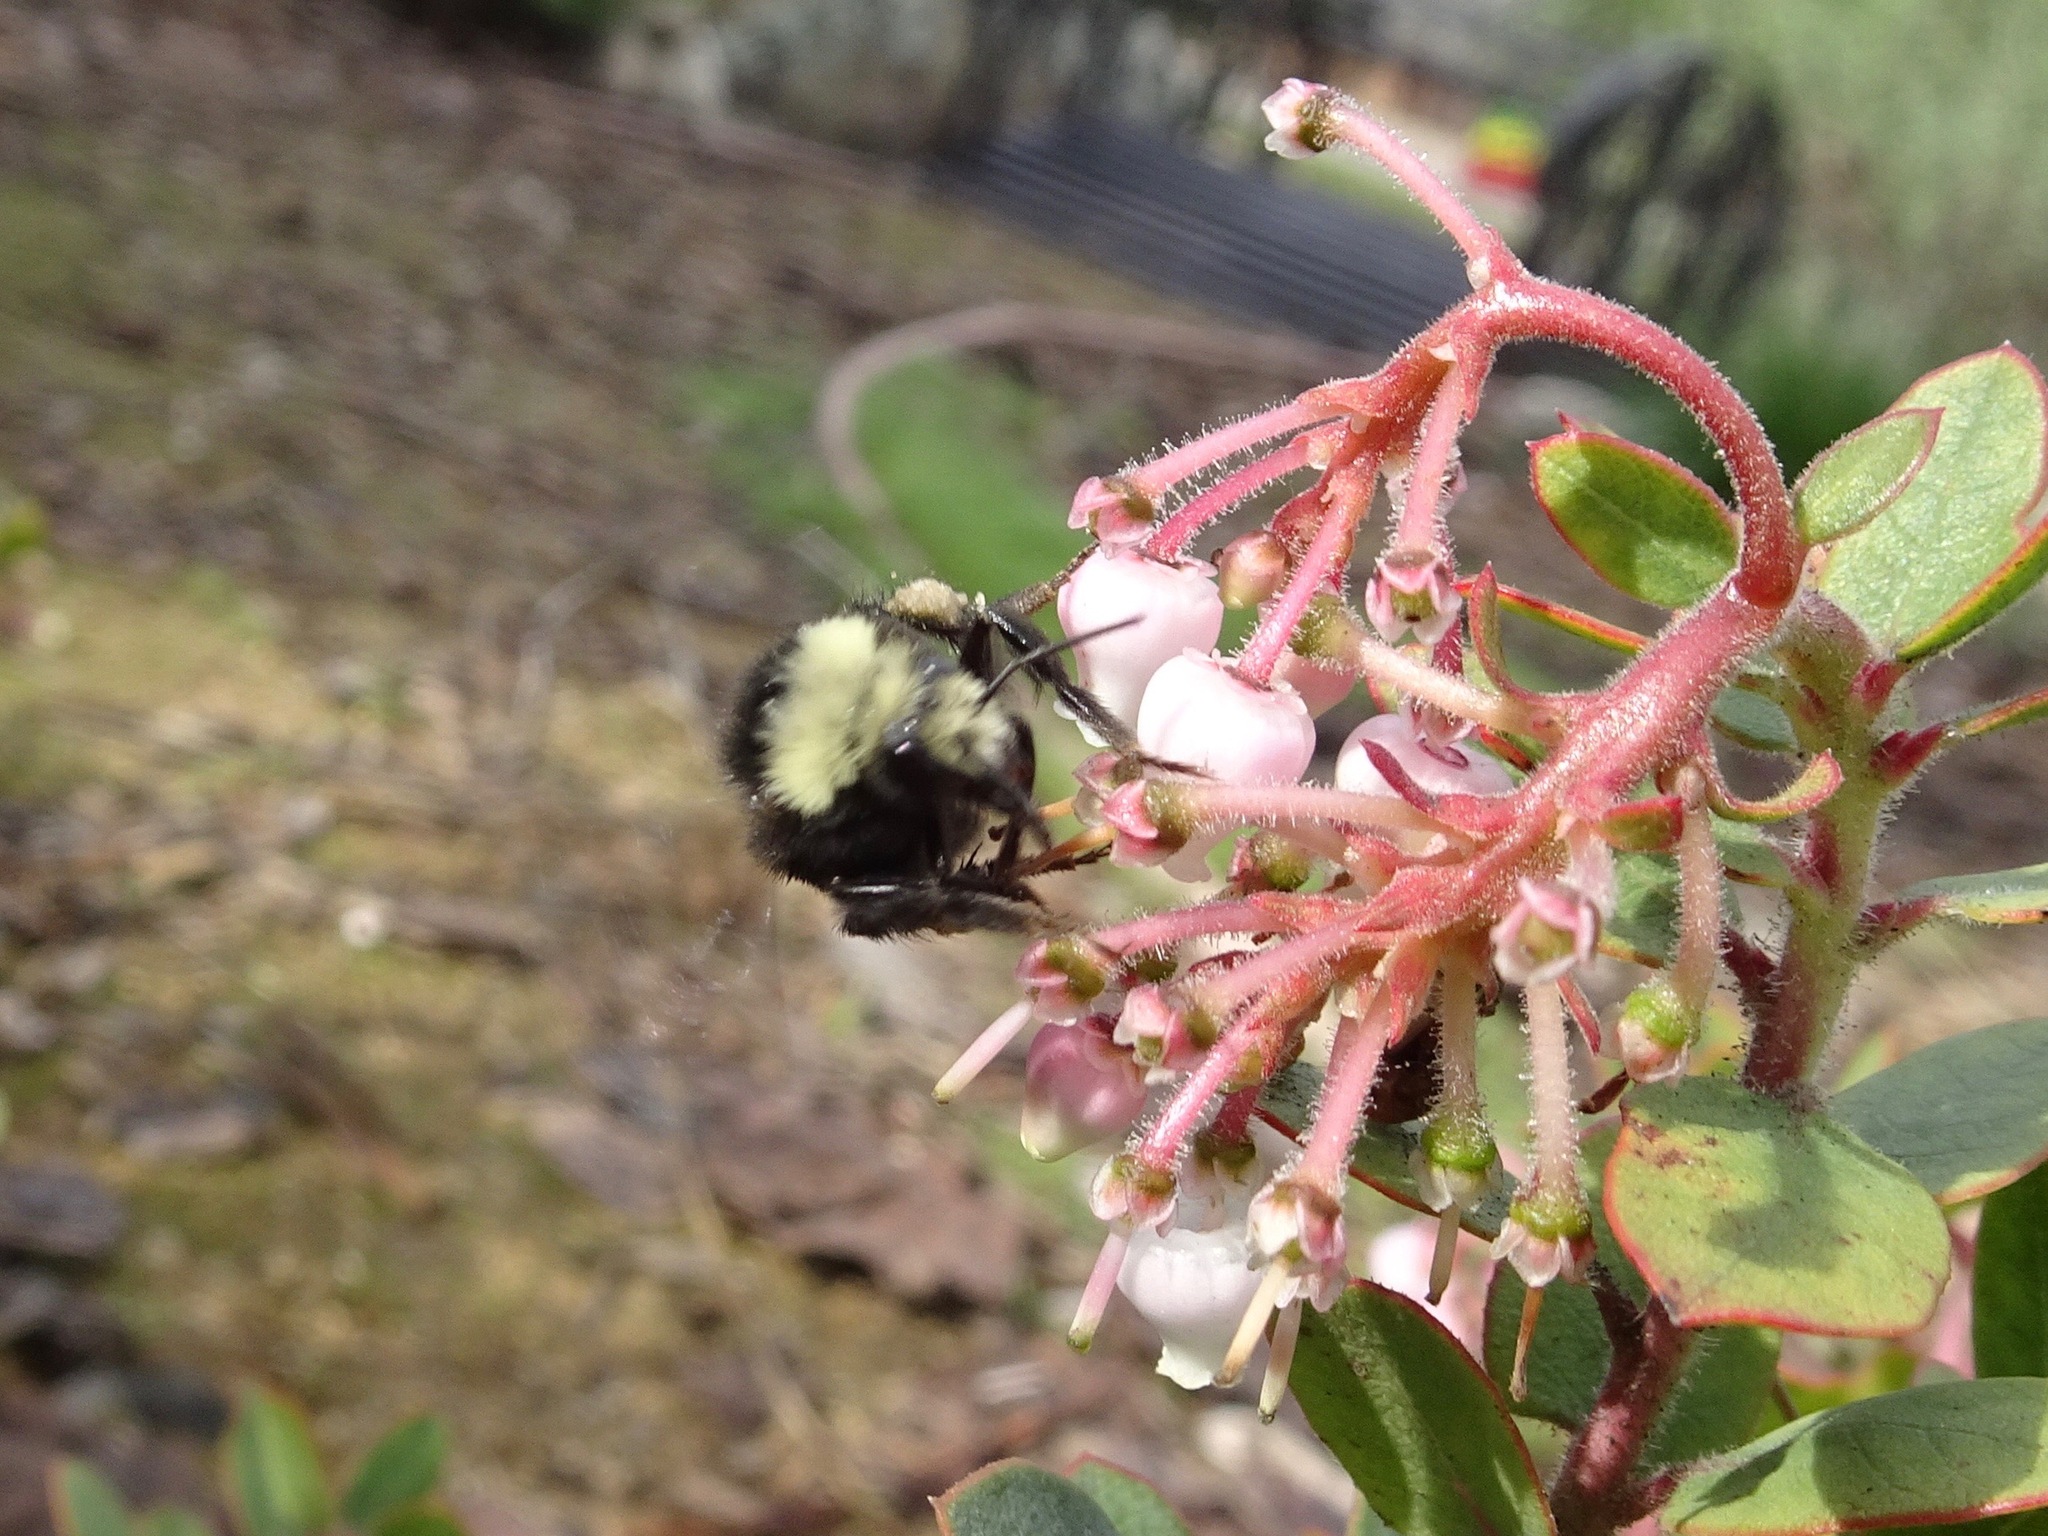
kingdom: Animalia
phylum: Arthropoda
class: Insecta
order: Hymenoptera
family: Apidae
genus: Bombus
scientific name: Bombus vosnesenskii
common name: Vosnesensky bumble bee
